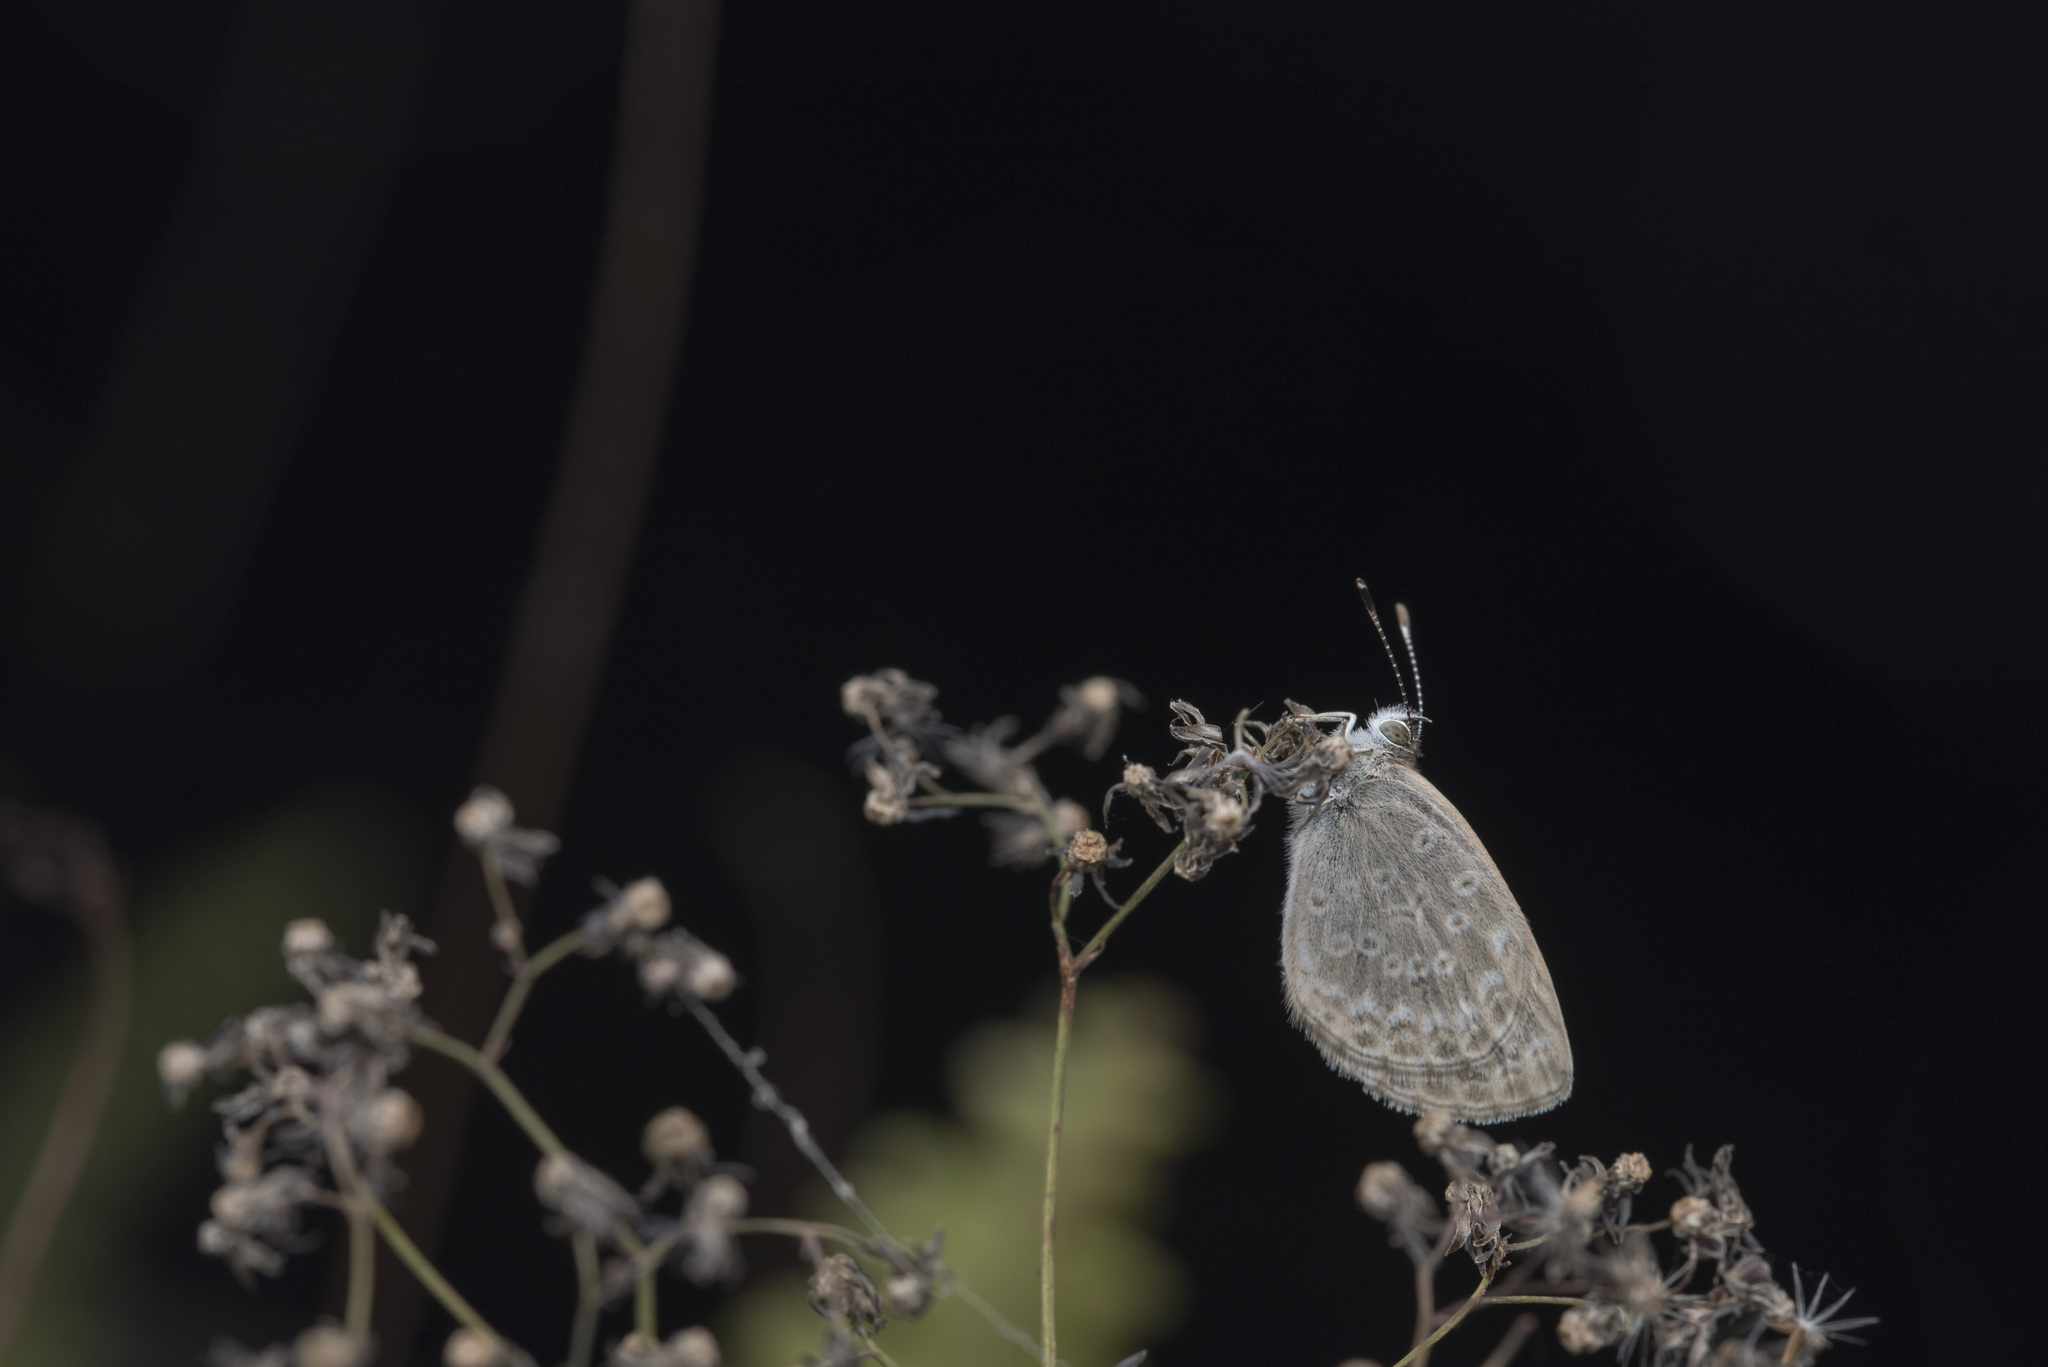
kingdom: Animalia
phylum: Arthropoda
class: Insecta
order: Lepidoptera
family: Lycaenidae
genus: Pseudozizeeria
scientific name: Pseudozizeeria maha
